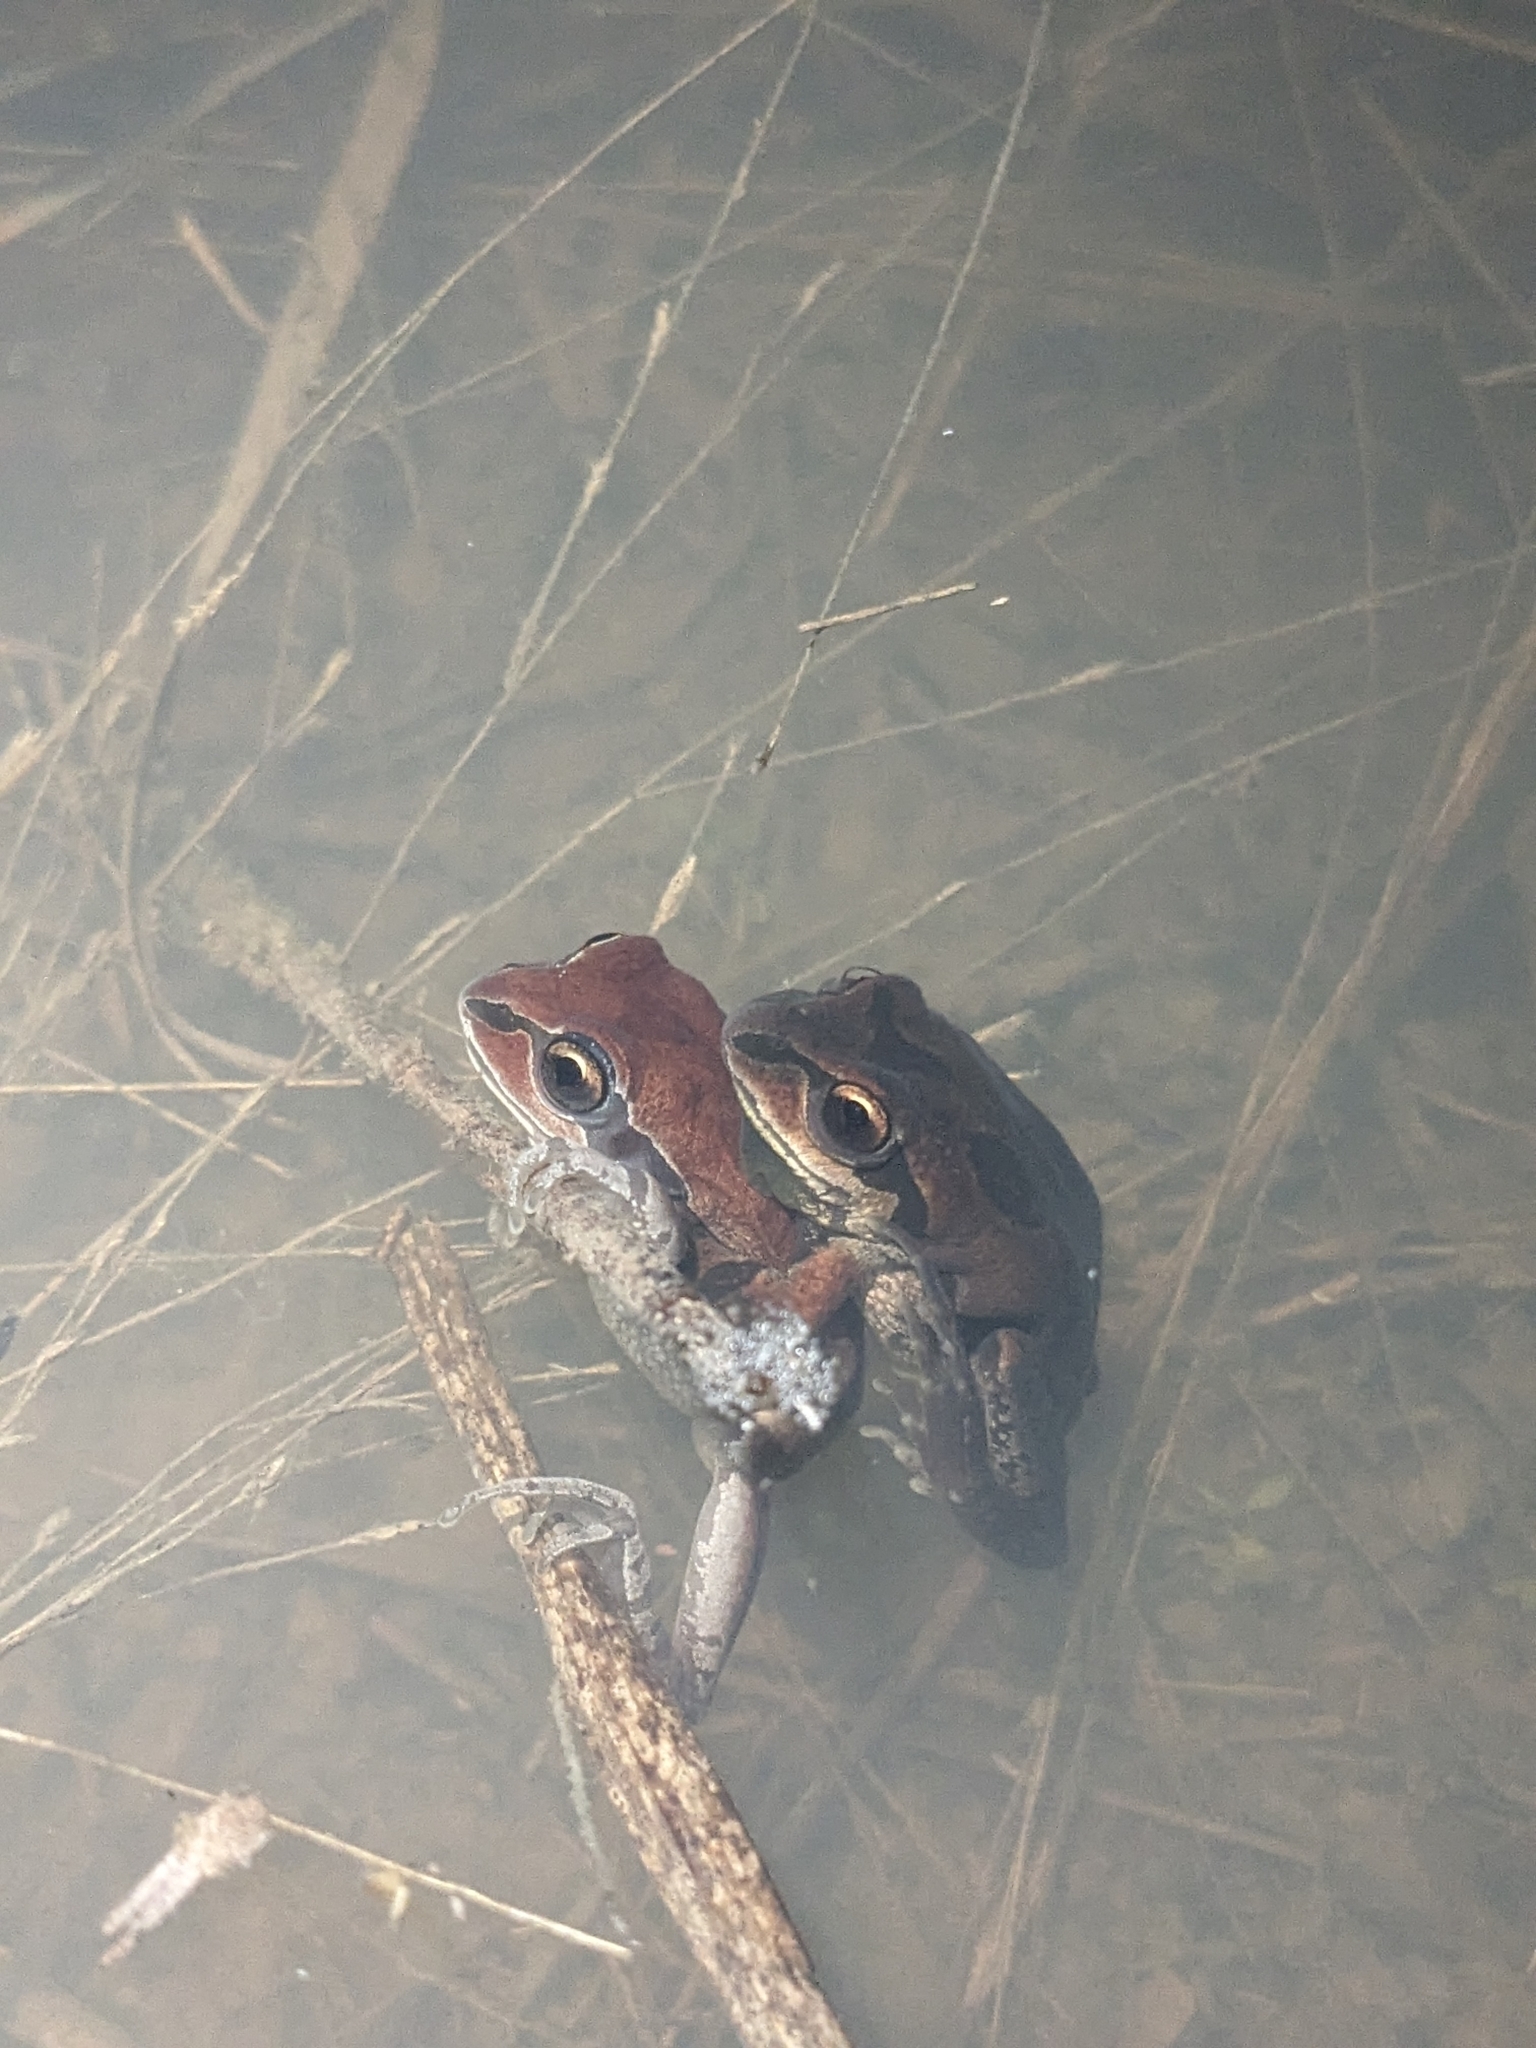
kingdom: Animalia
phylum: Chordata
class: Amphibia
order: Anura
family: Hylidae
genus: Pseudacris
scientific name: Pseudacris ornata
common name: Ornate chorus frog
